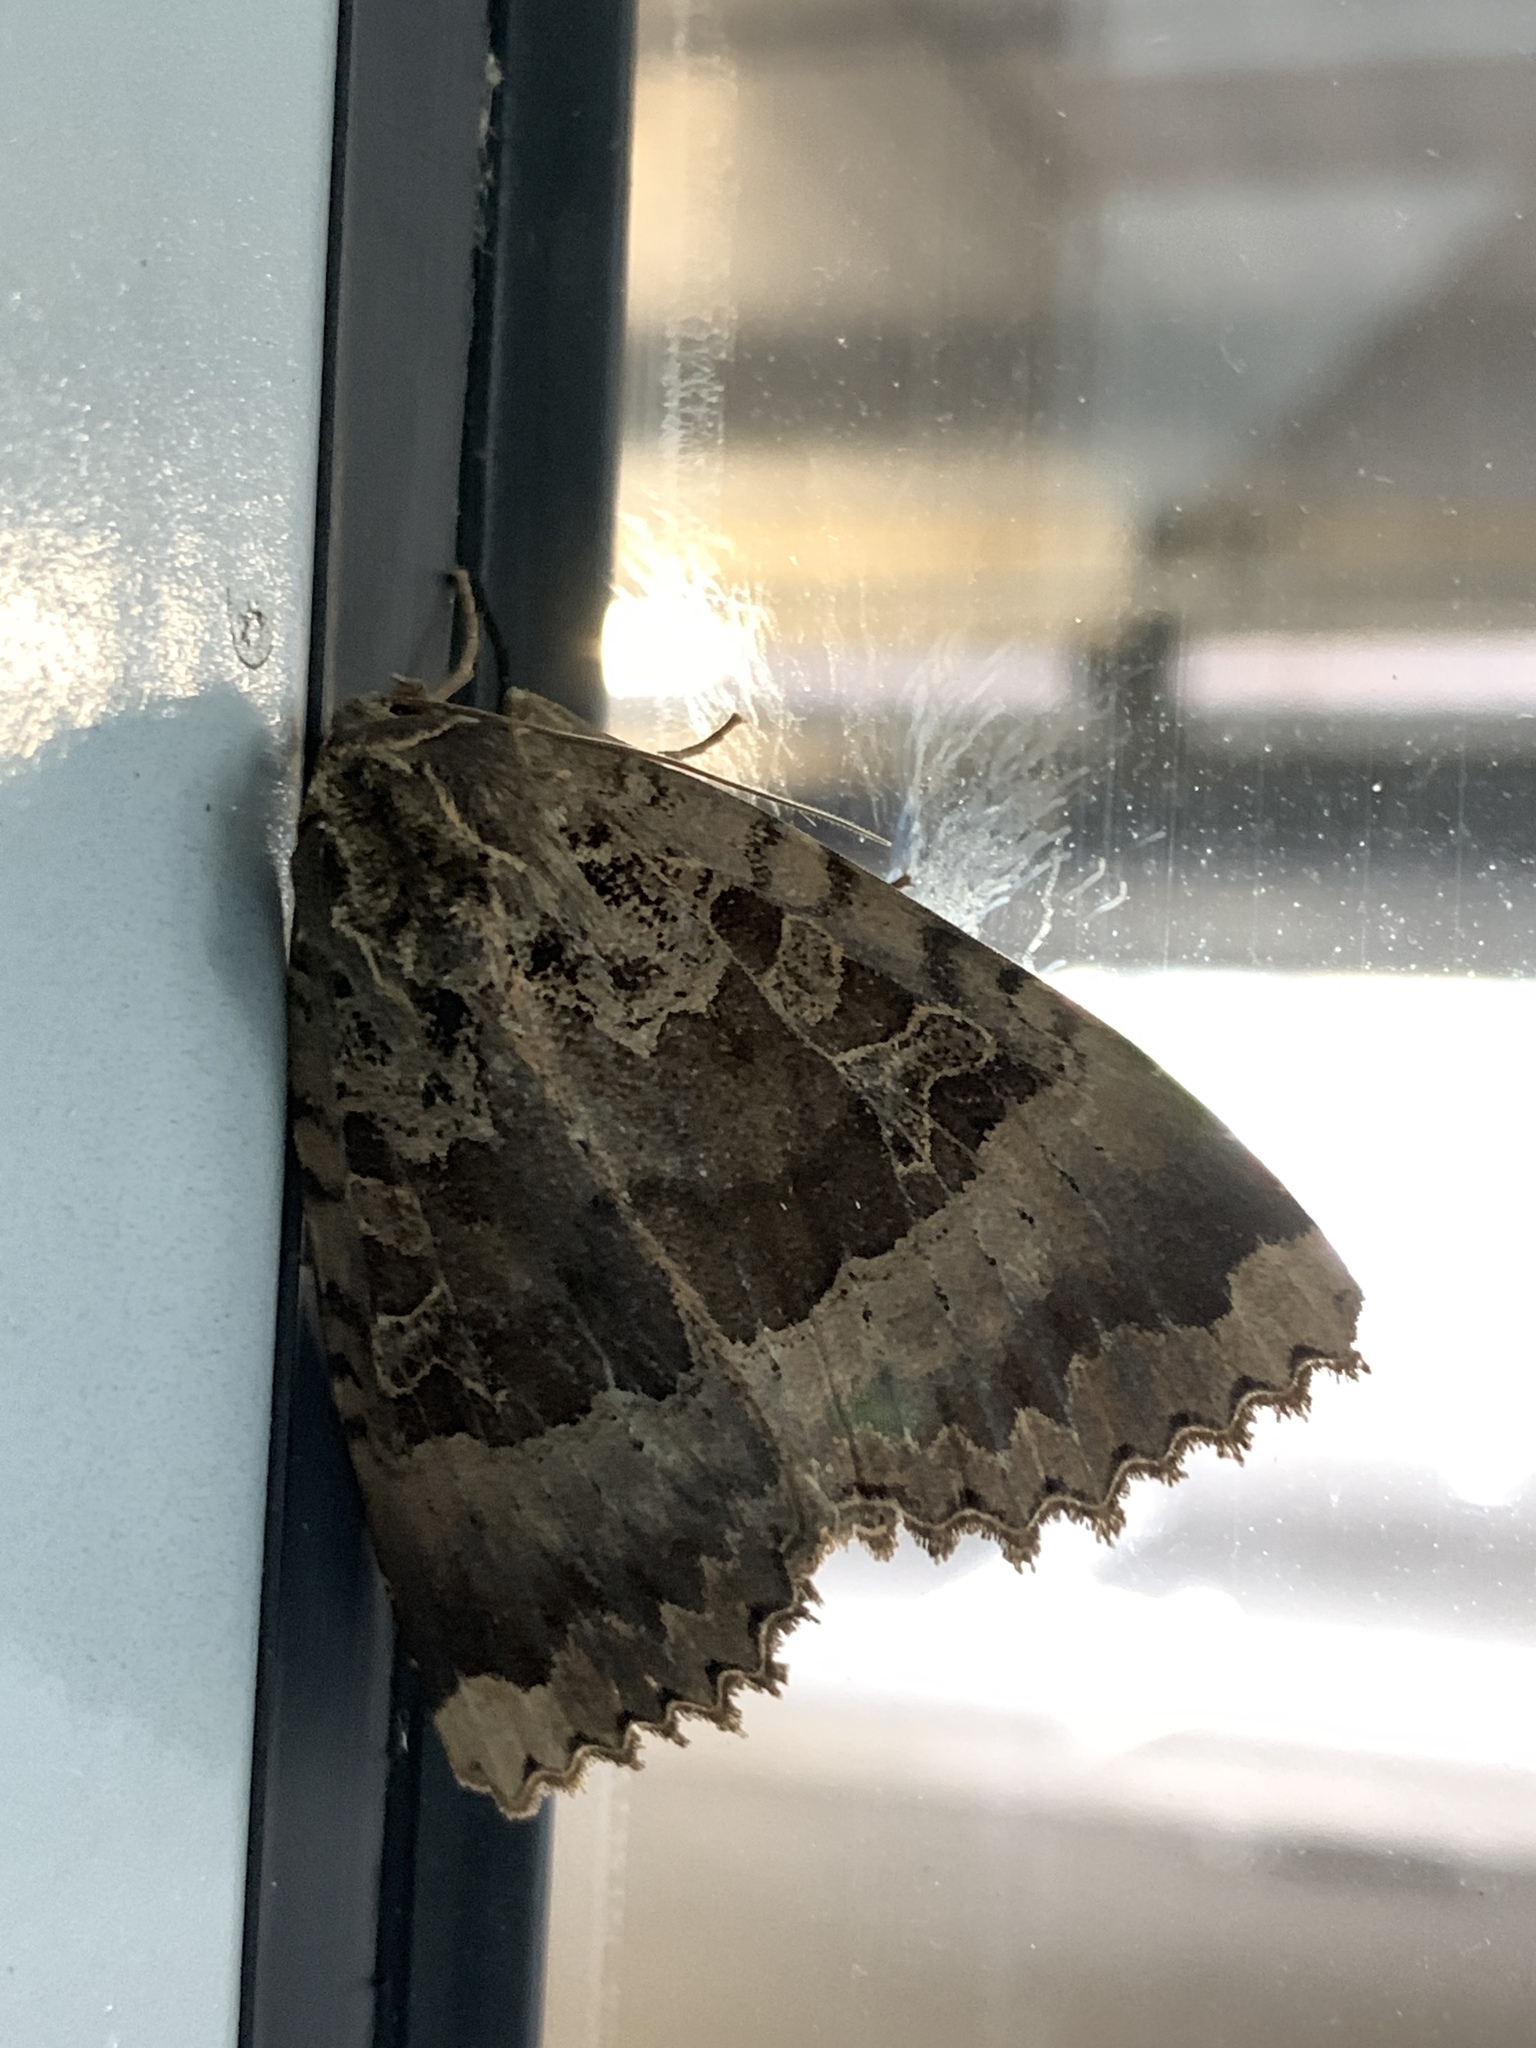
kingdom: Animalia
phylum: Arthropoda
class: Insecta
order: Lepidoptera
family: Noctuidae
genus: Mormo
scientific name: Mormo maura
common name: Old lady
